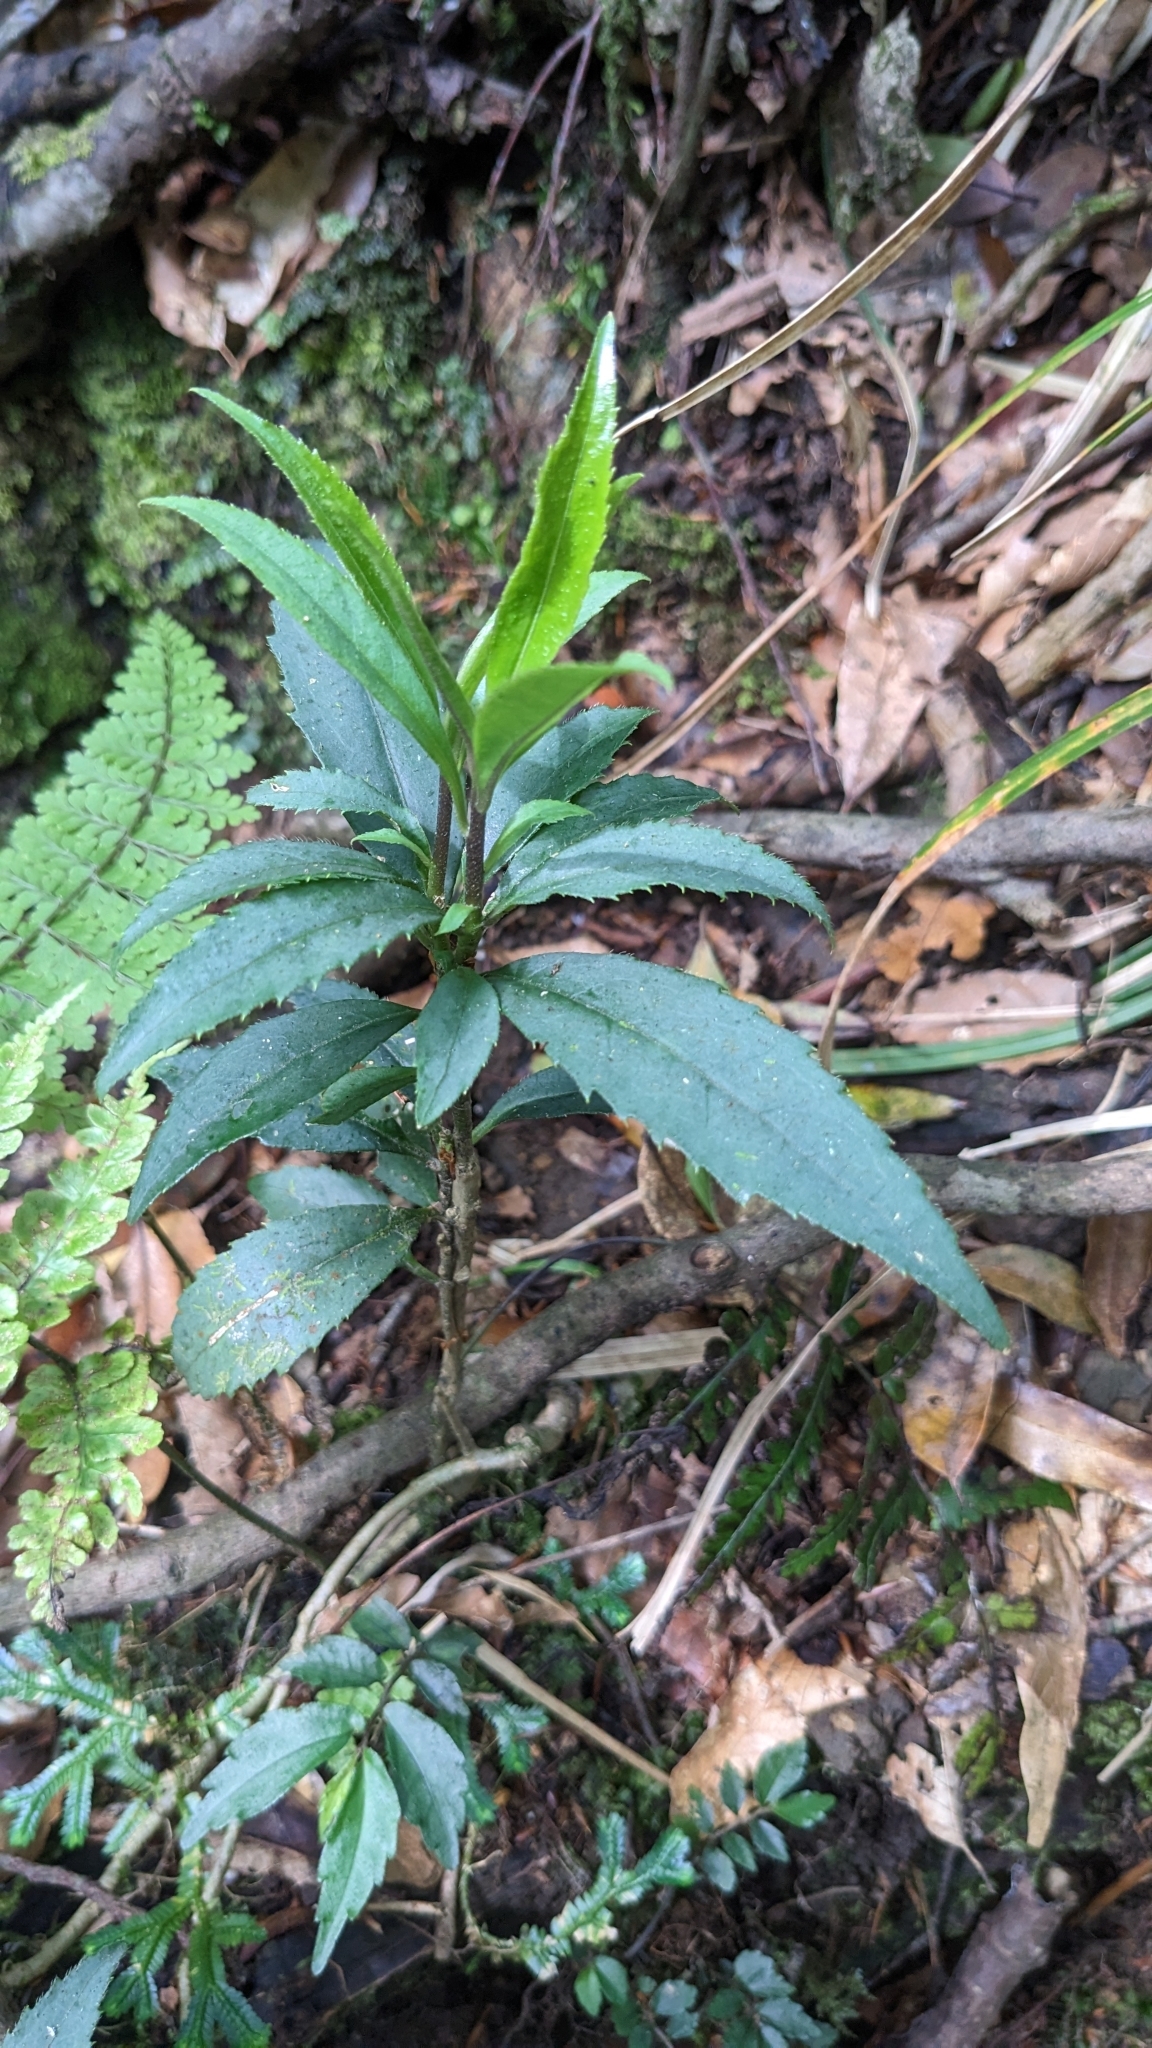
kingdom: Plantae
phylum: Tracheophyta
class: Magnoliopsida
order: Ericales
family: Symplocaceae
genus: Symplocos
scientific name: Symplocos wikstroemiifolia
